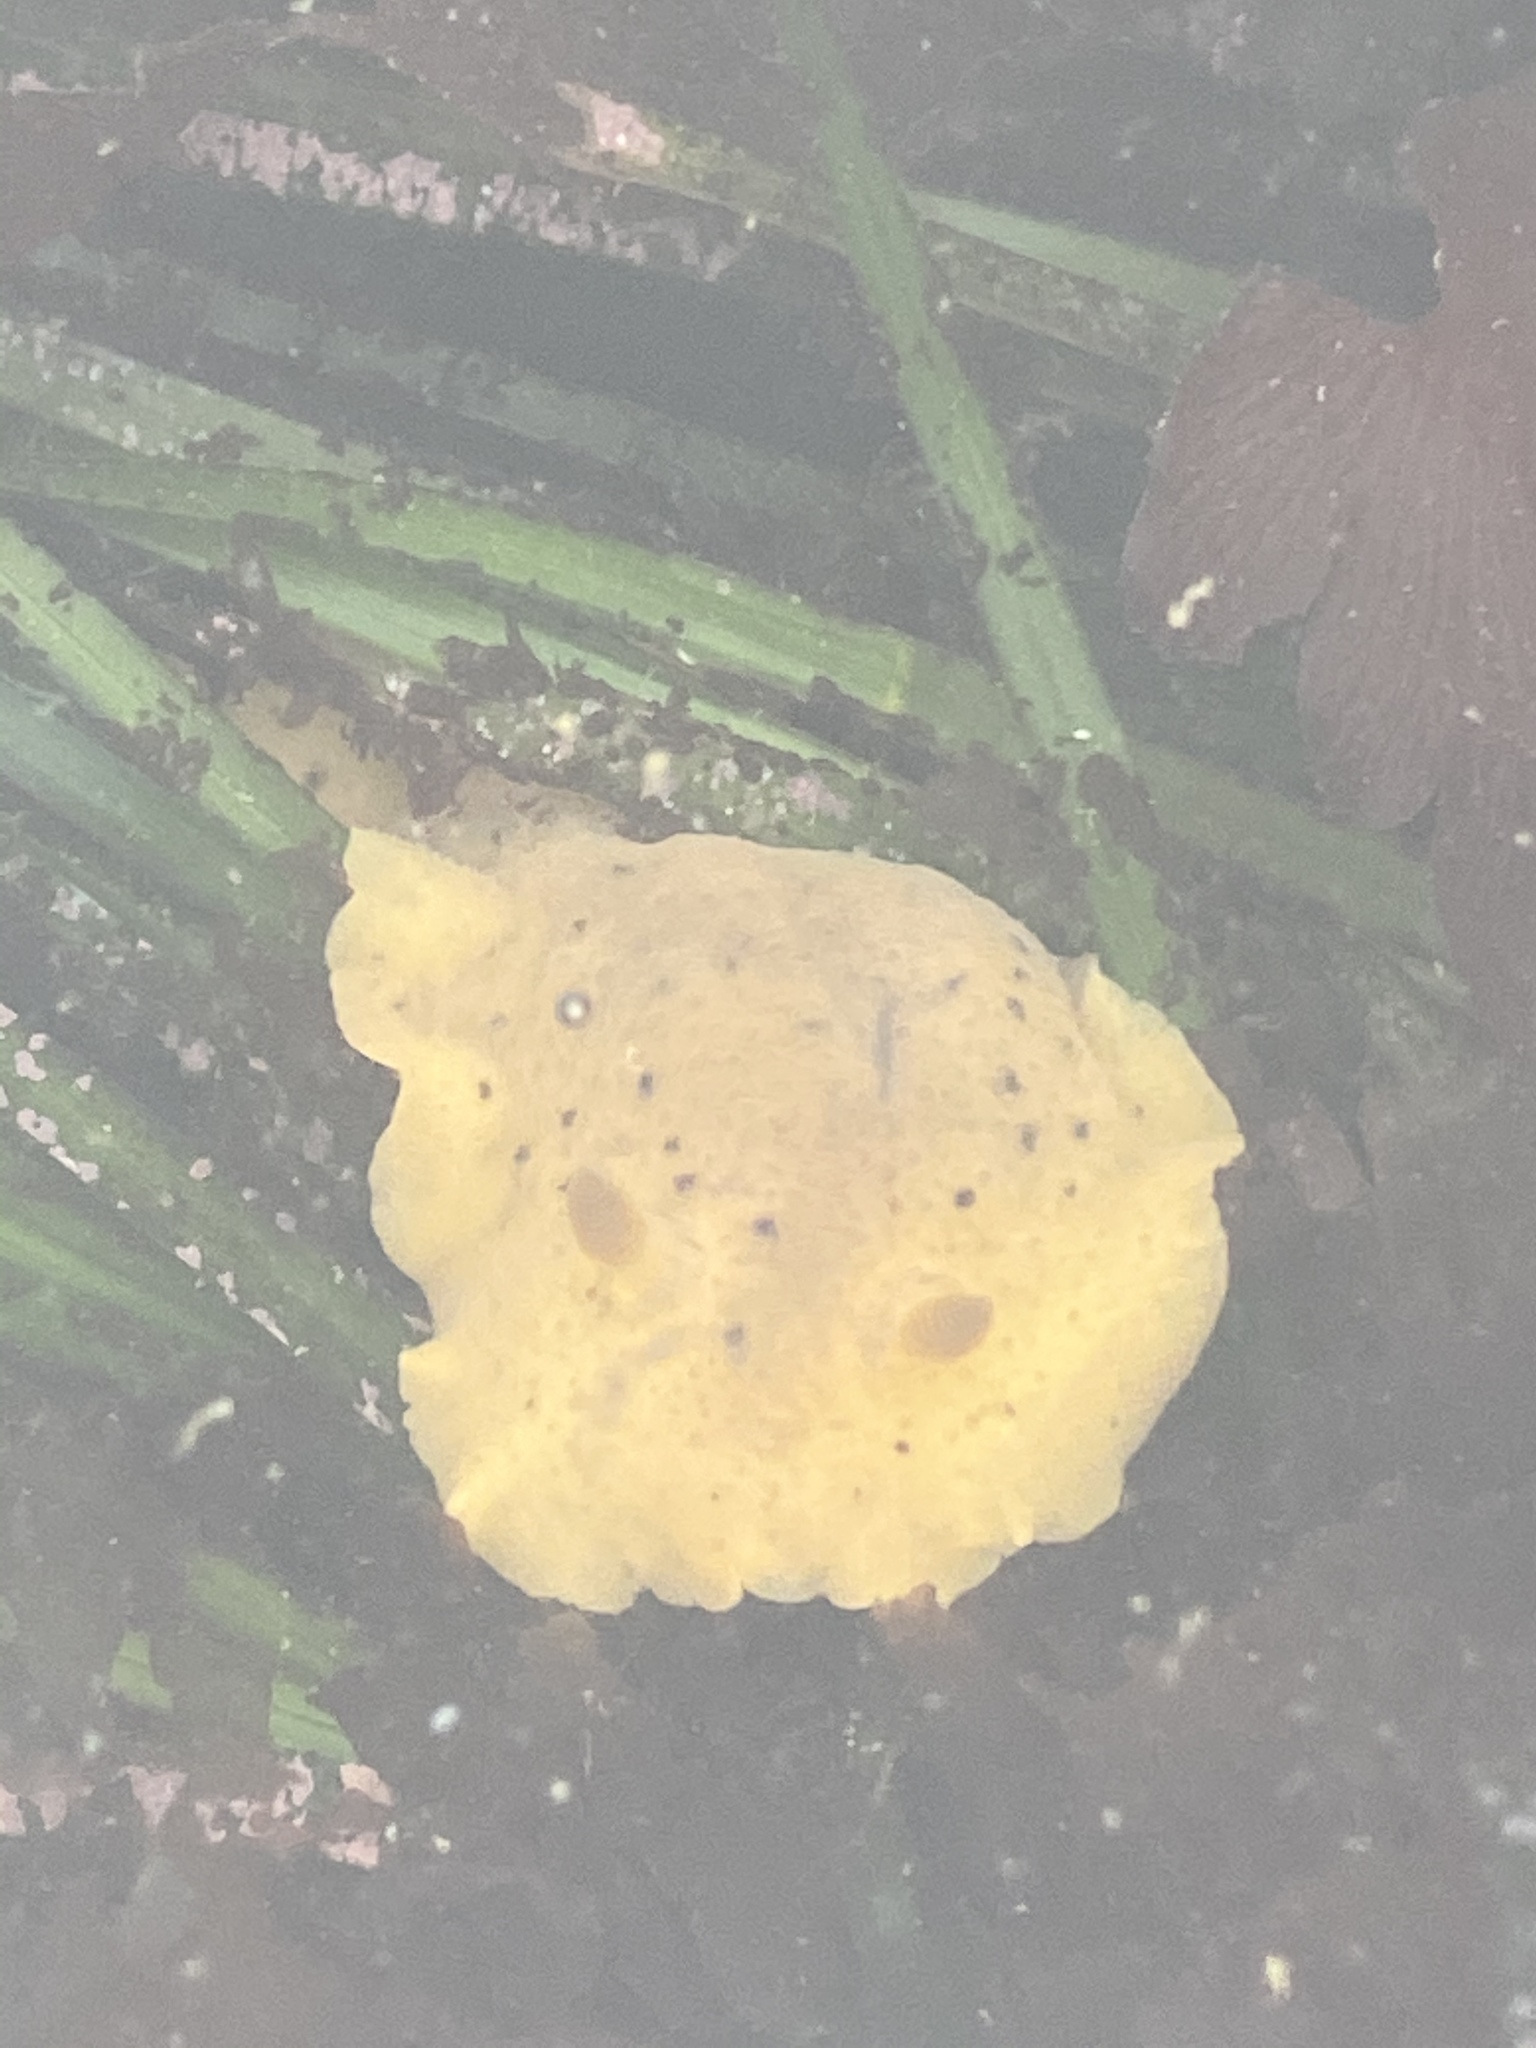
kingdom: Animalia
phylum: Mollusca
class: Gastropoda
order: Nudibranchia
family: Discodorididae
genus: Geitodoris
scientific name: Geitodoris heathi
